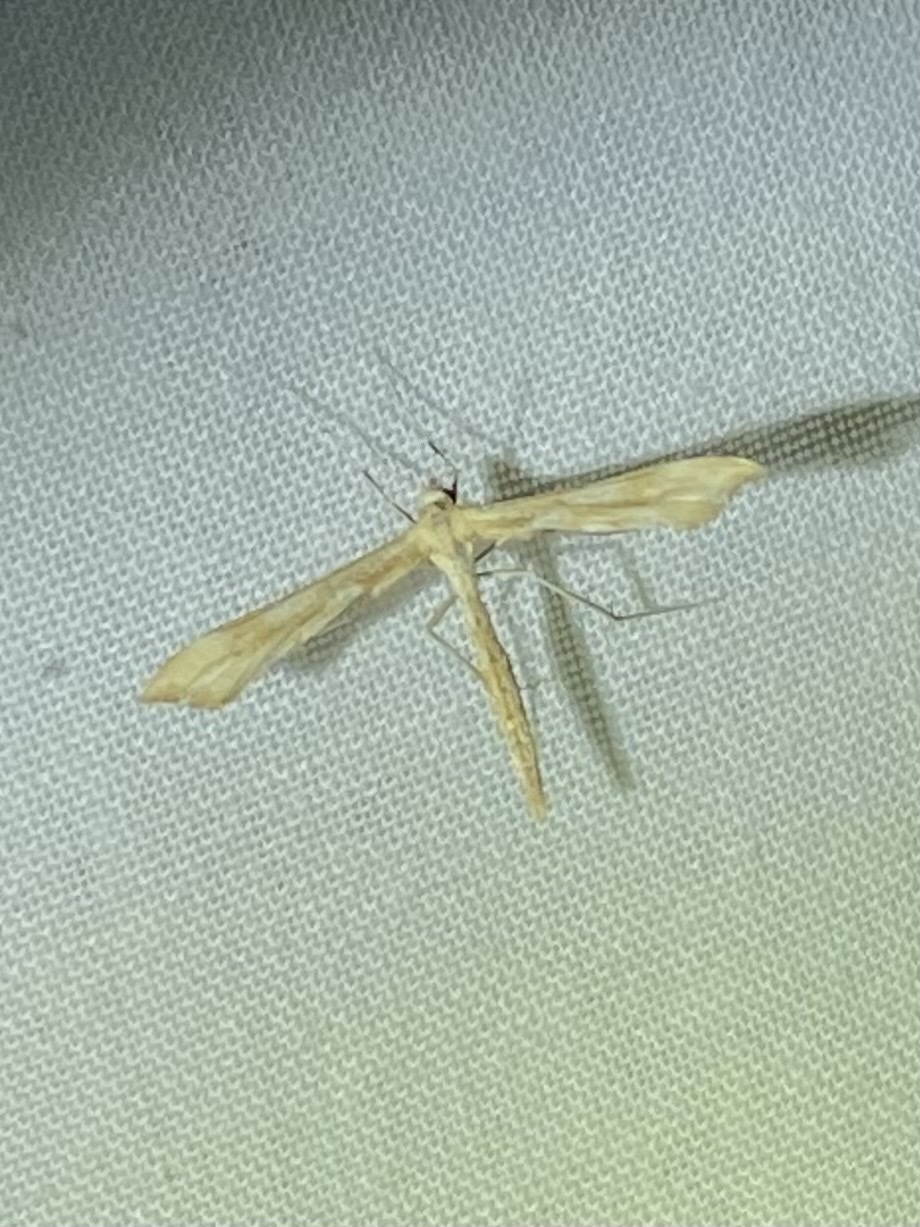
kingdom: Animalia
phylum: Arthropoda
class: Insecta
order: Lepidoptera
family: Pterophoridae
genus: Gillmeria
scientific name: Gillmeria pallidactyla
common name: Yarrow plume
